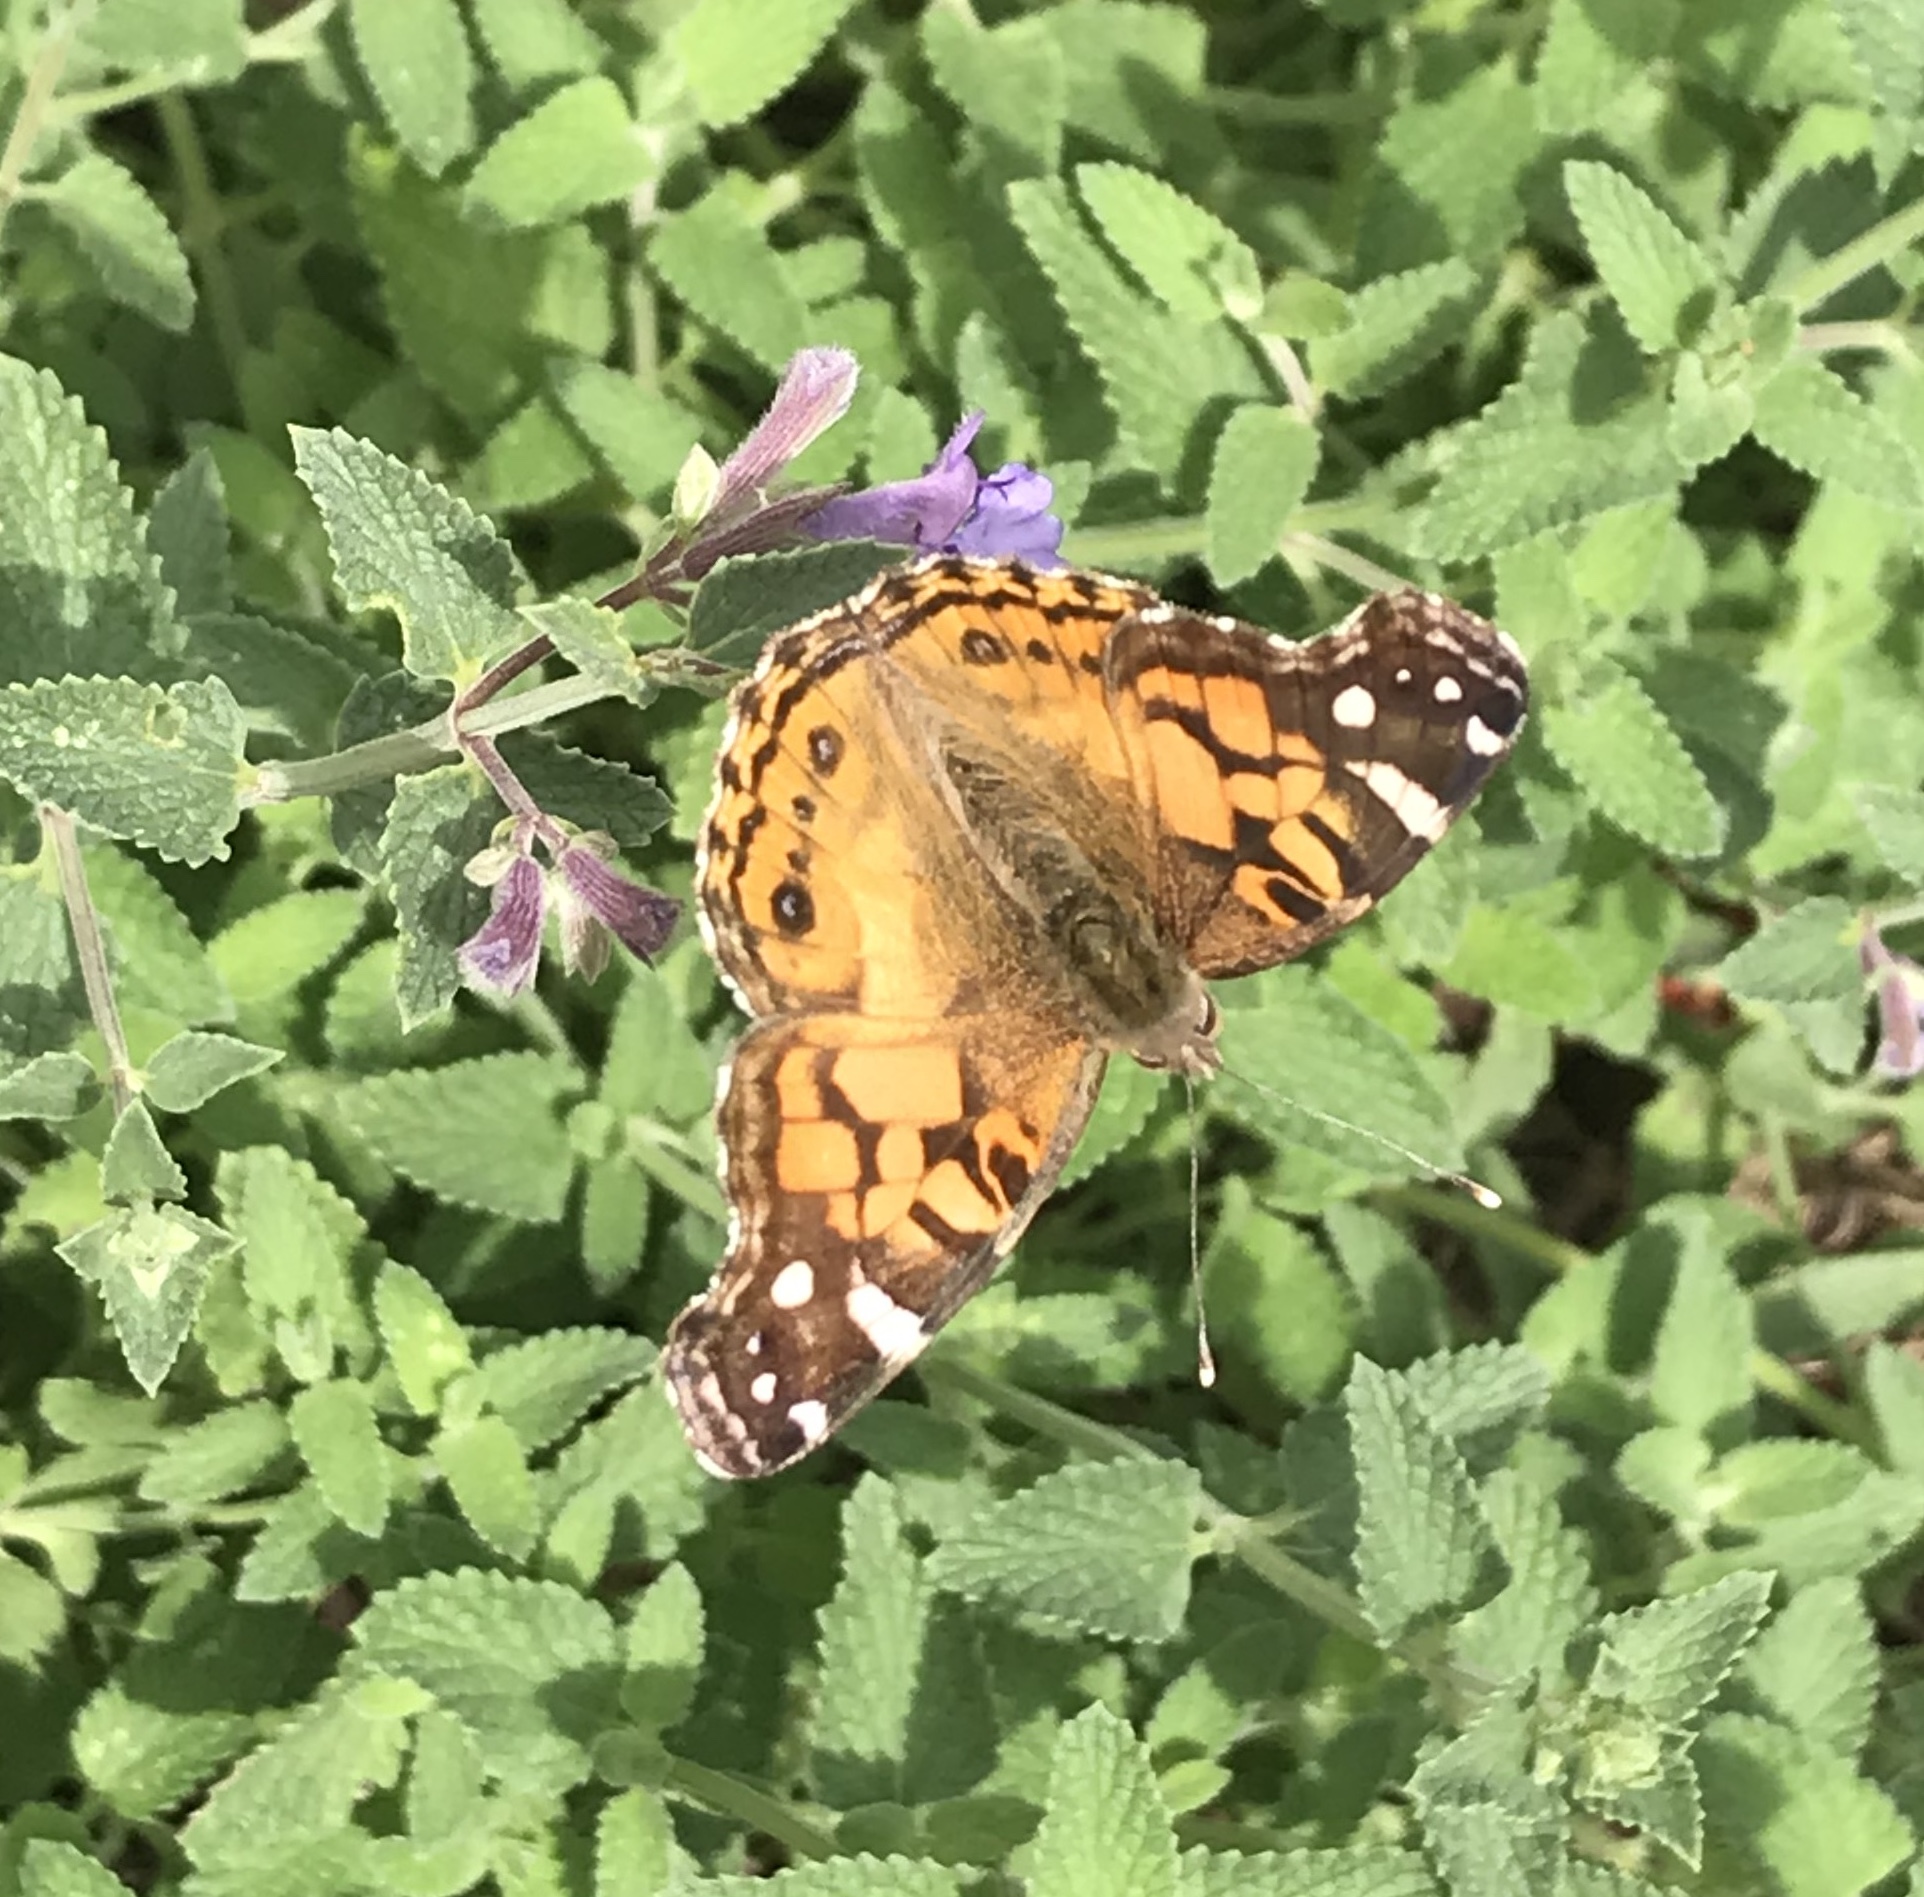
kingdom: Animalia
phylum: Arthropoda
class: Insecta
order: Lepidoptera
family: Nymphalidae
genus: Vanessa
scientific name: Vanessa virginiensis
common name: American lady
